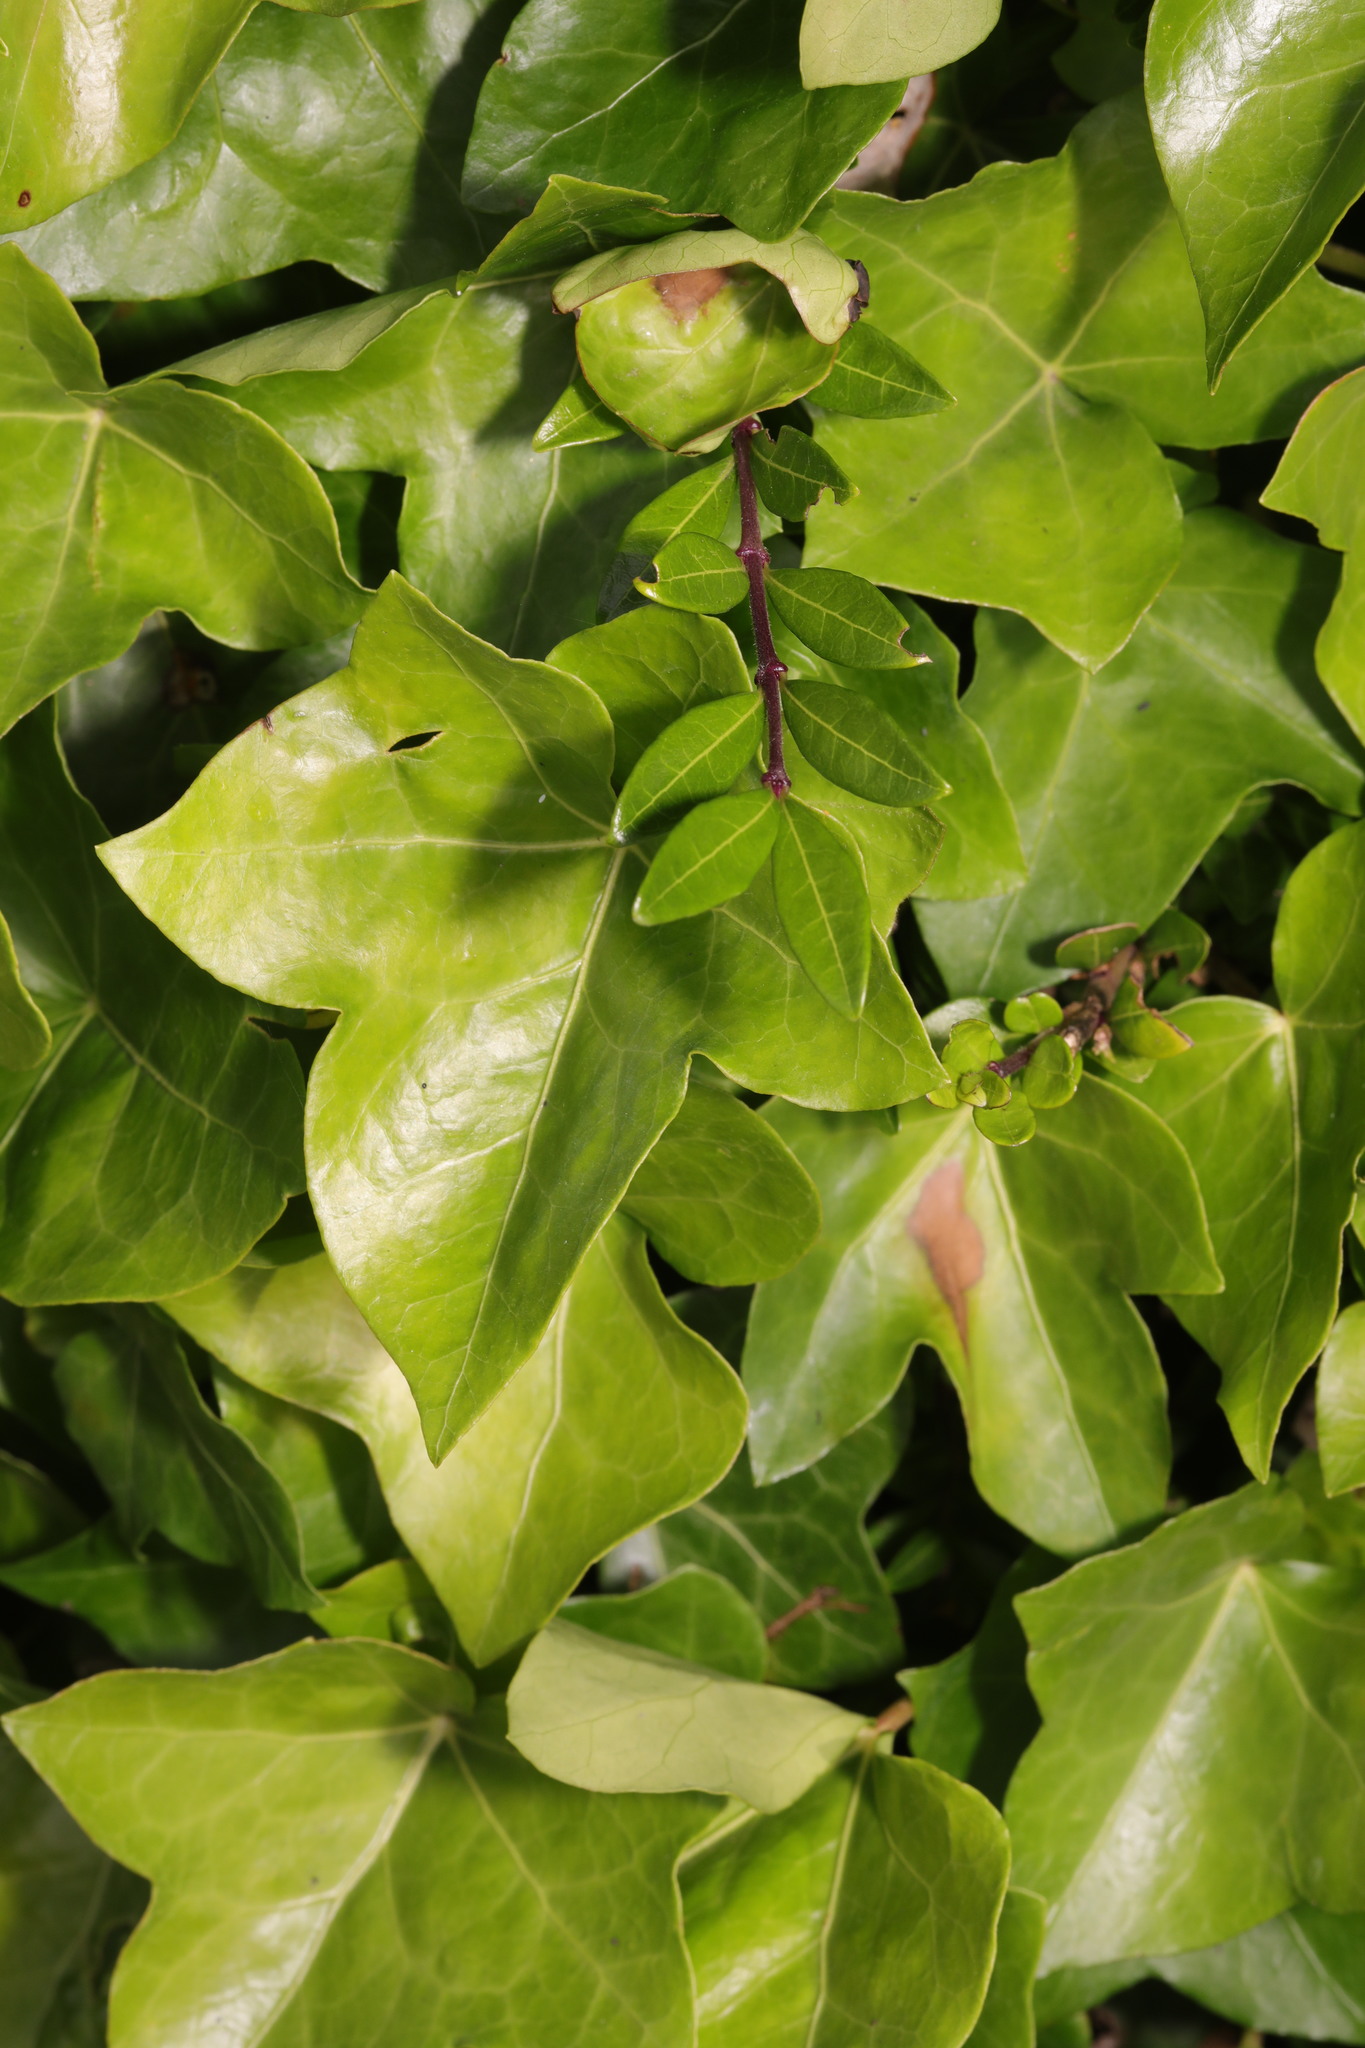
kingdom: Plantae
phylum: Tracheophyta
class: Magnoliopsida
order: Apiales
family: Araliaceae
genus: Hedera
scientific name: Hedera helix
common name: Ivy
